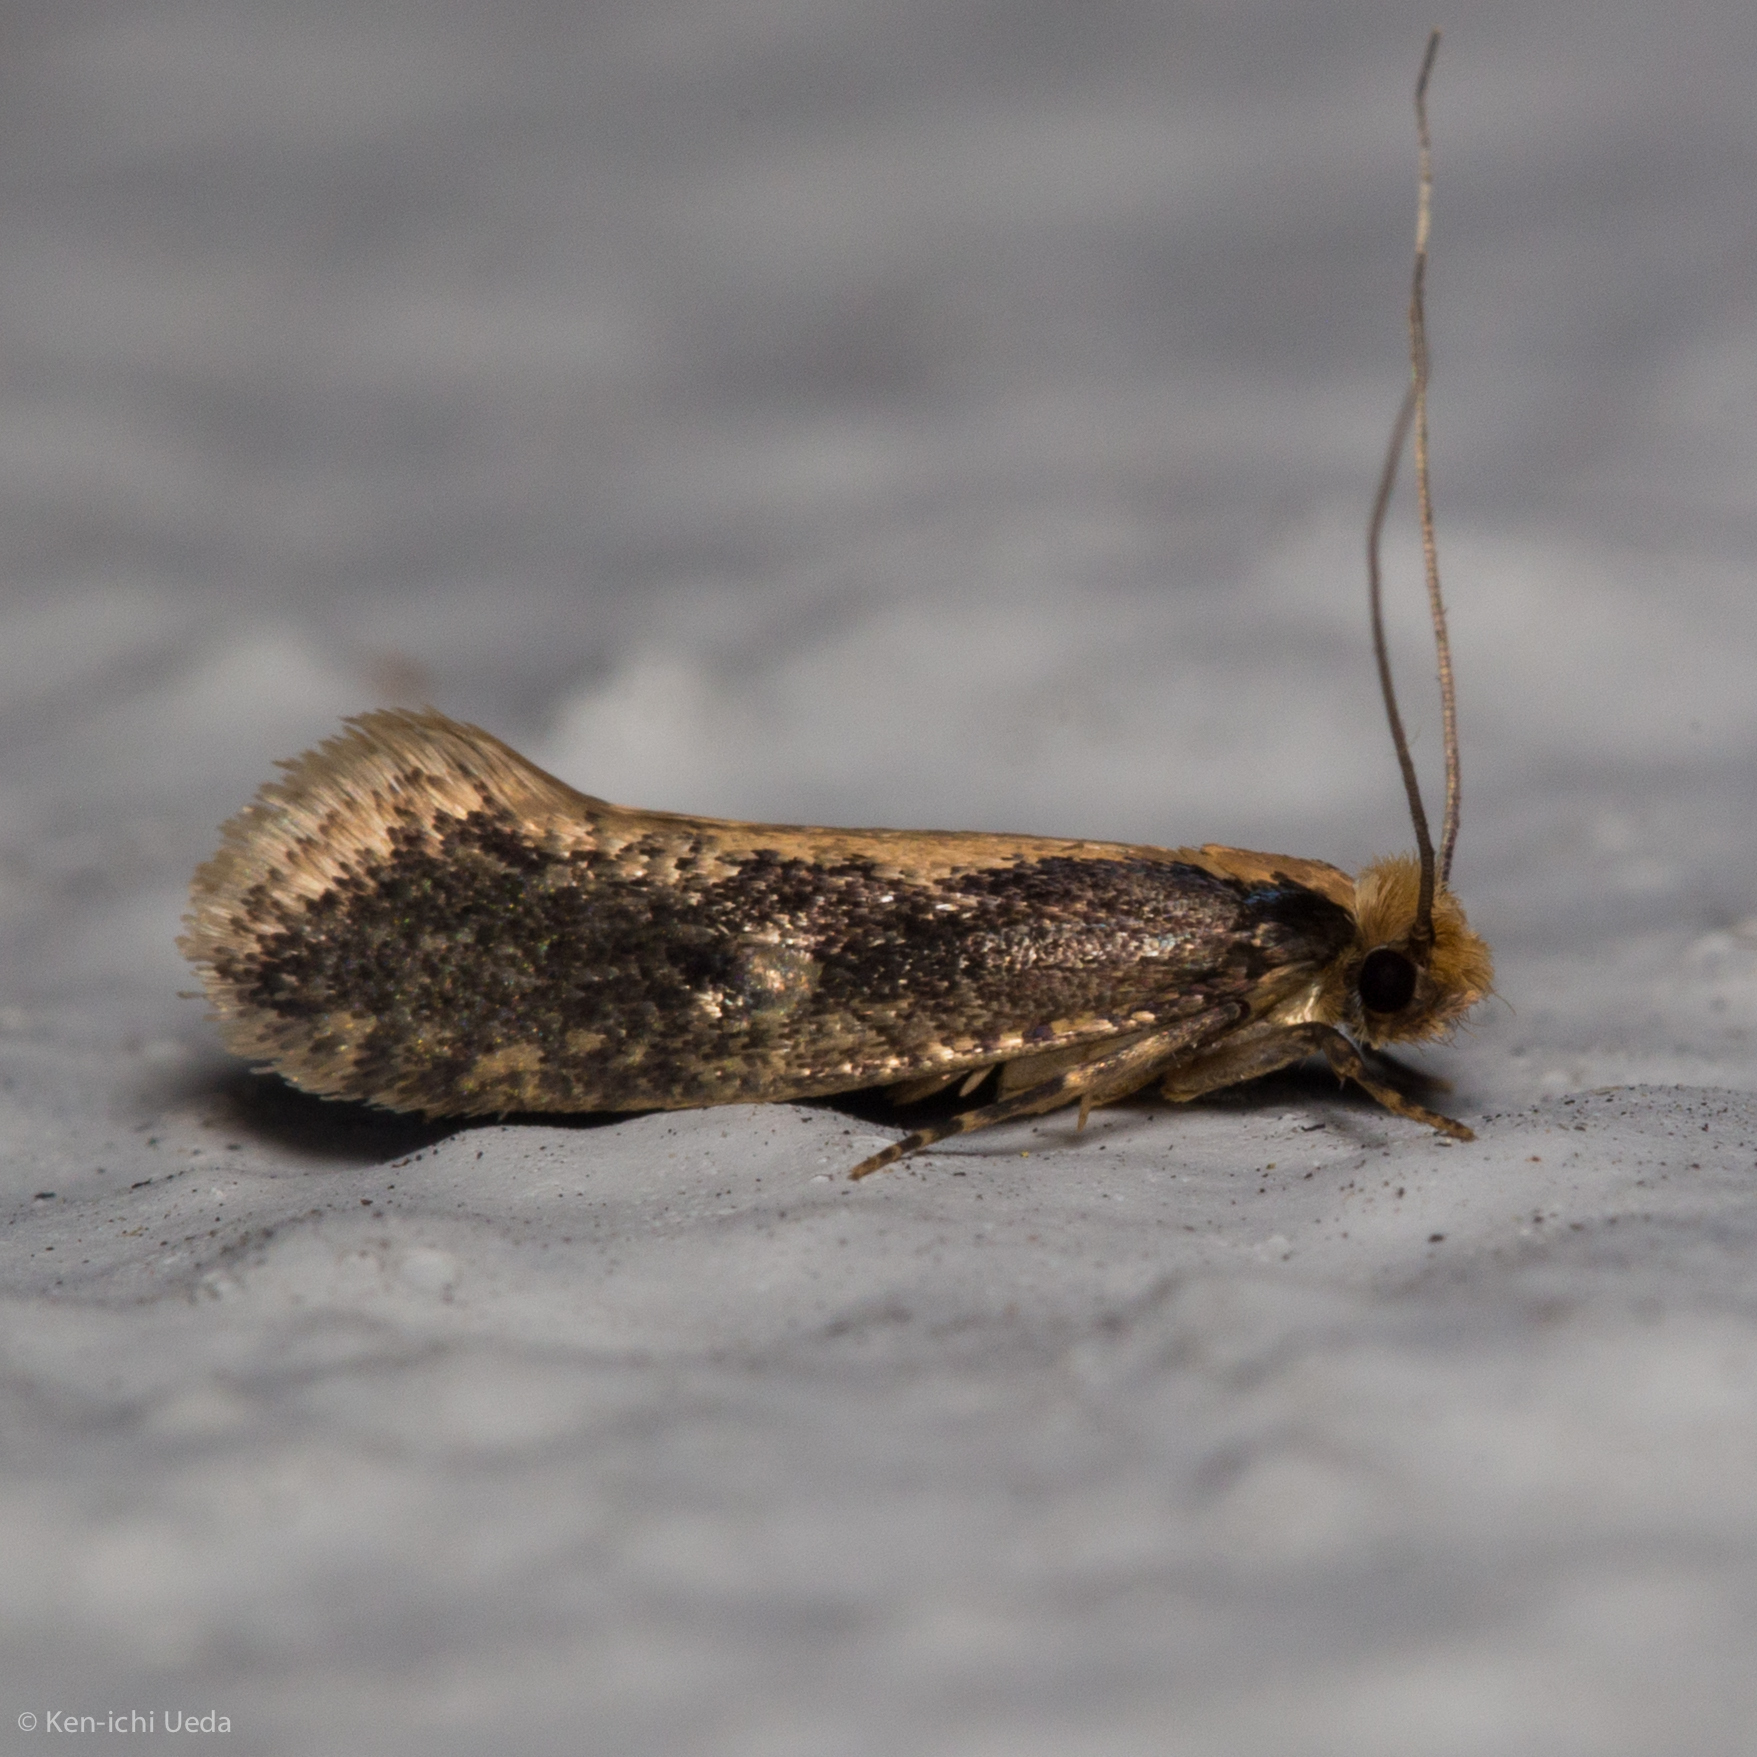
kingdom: Animalia
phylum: Arthropoda
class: Insecta
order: Lepidoptera
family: Tineidae
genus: Monopis
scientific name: Monopis crocicapitella
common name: Moth
